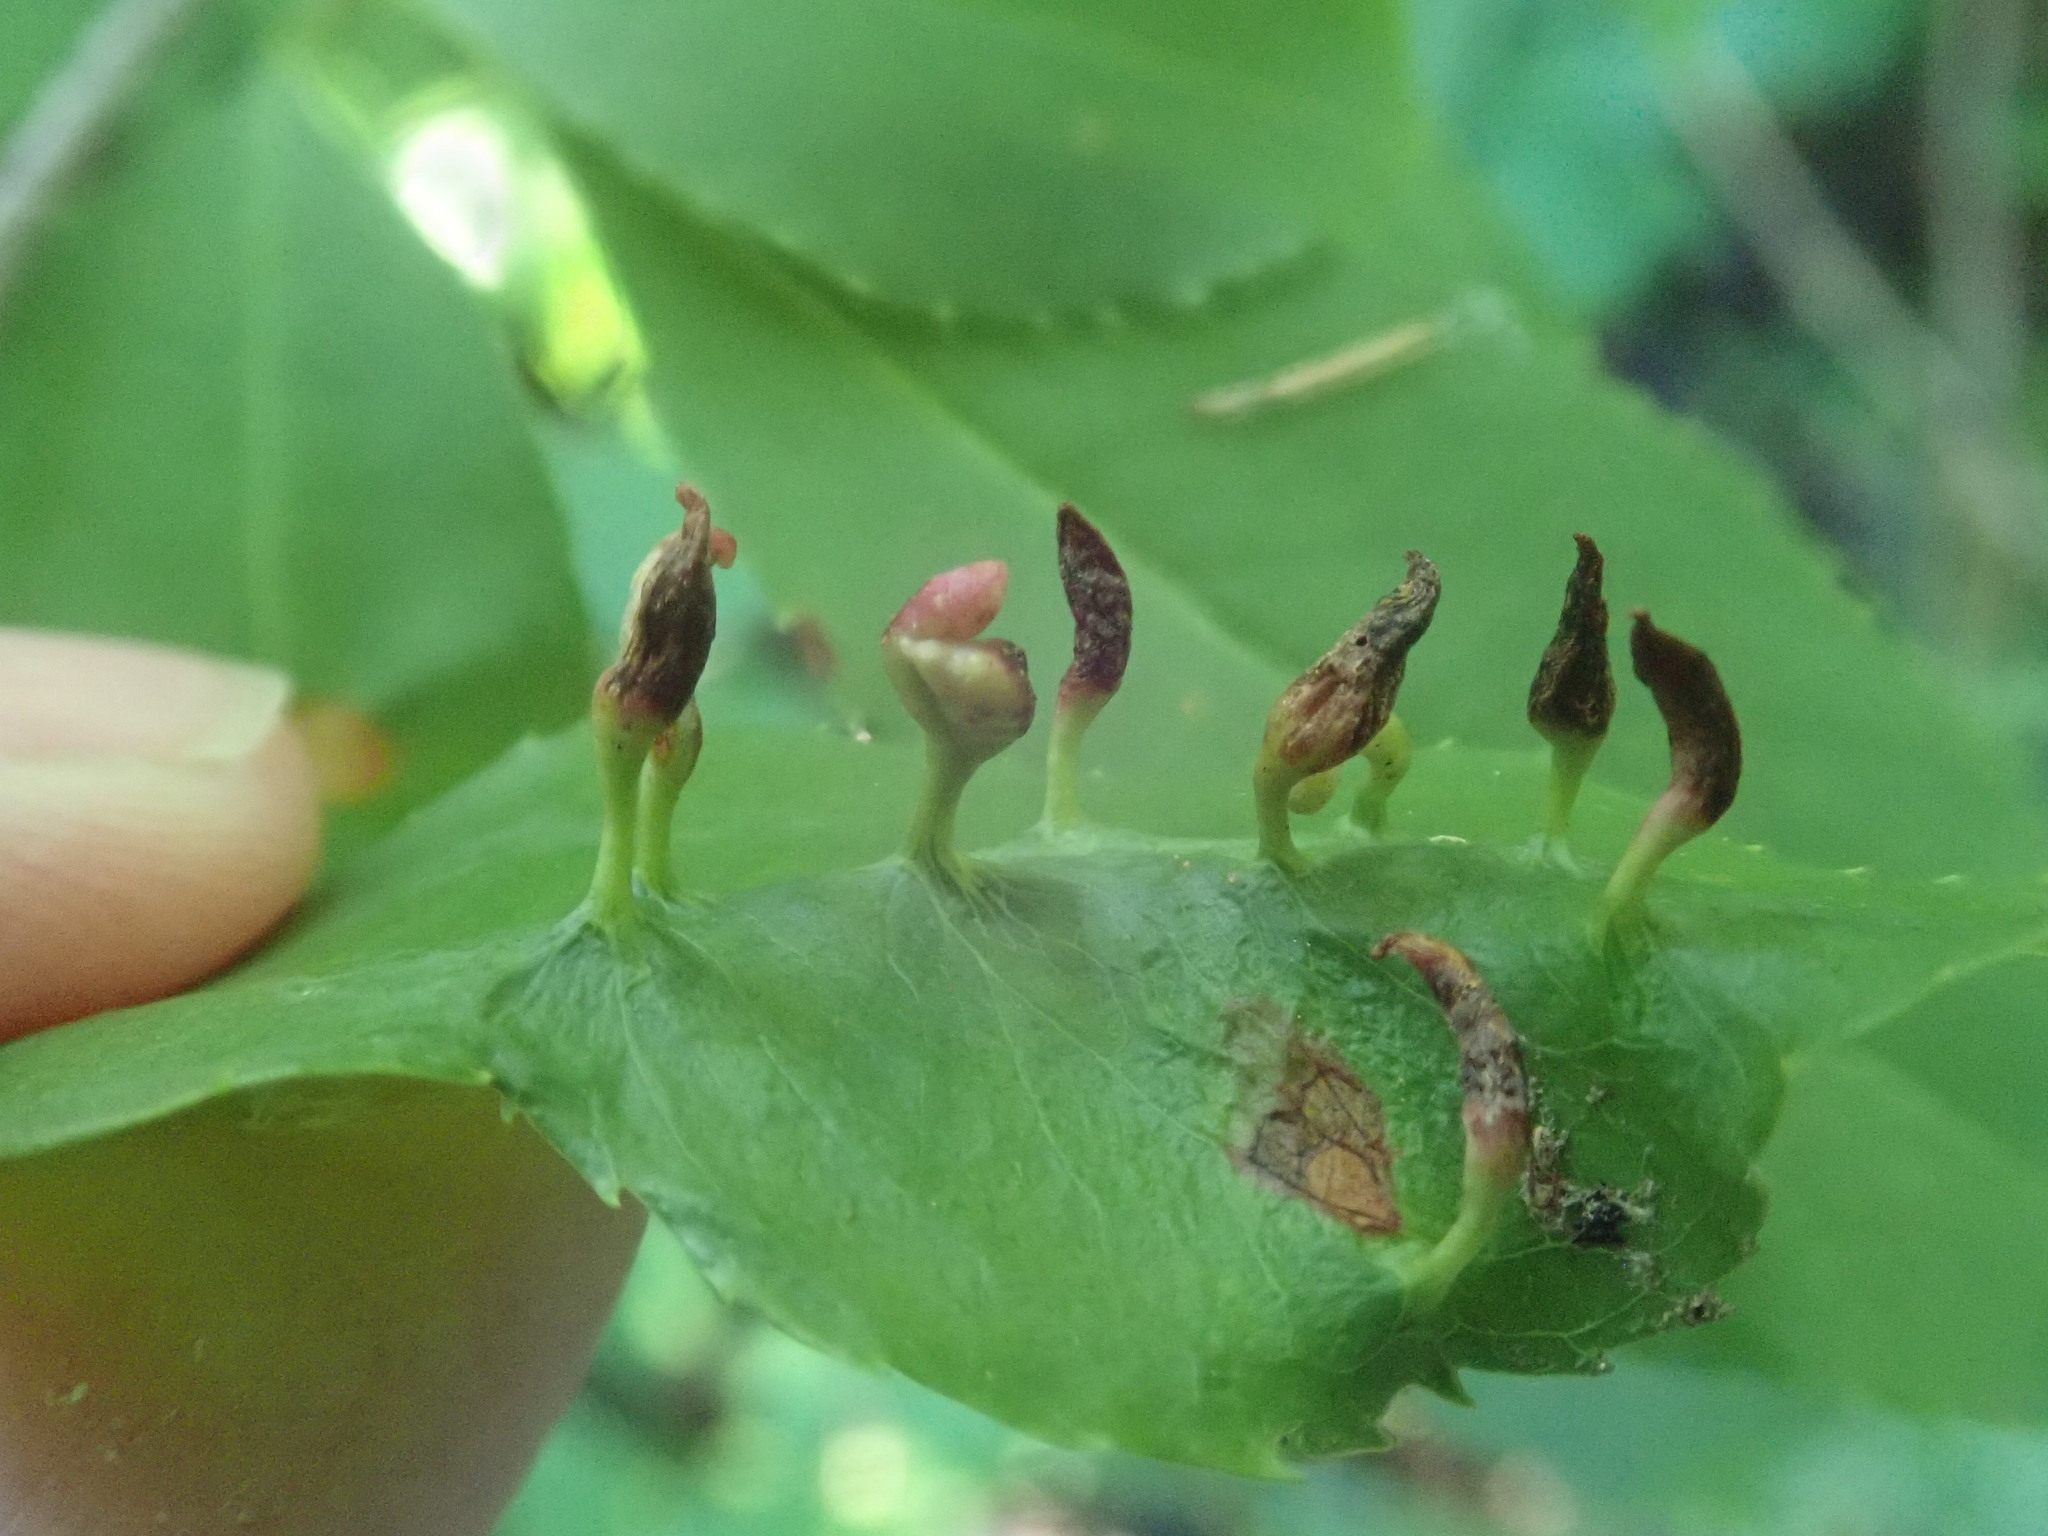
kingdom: Animalia
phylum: Arthropoda
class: Arachnida
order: Trombidiformes
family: Eriophyidae
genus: Eriophyes
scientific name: Eriophyes
